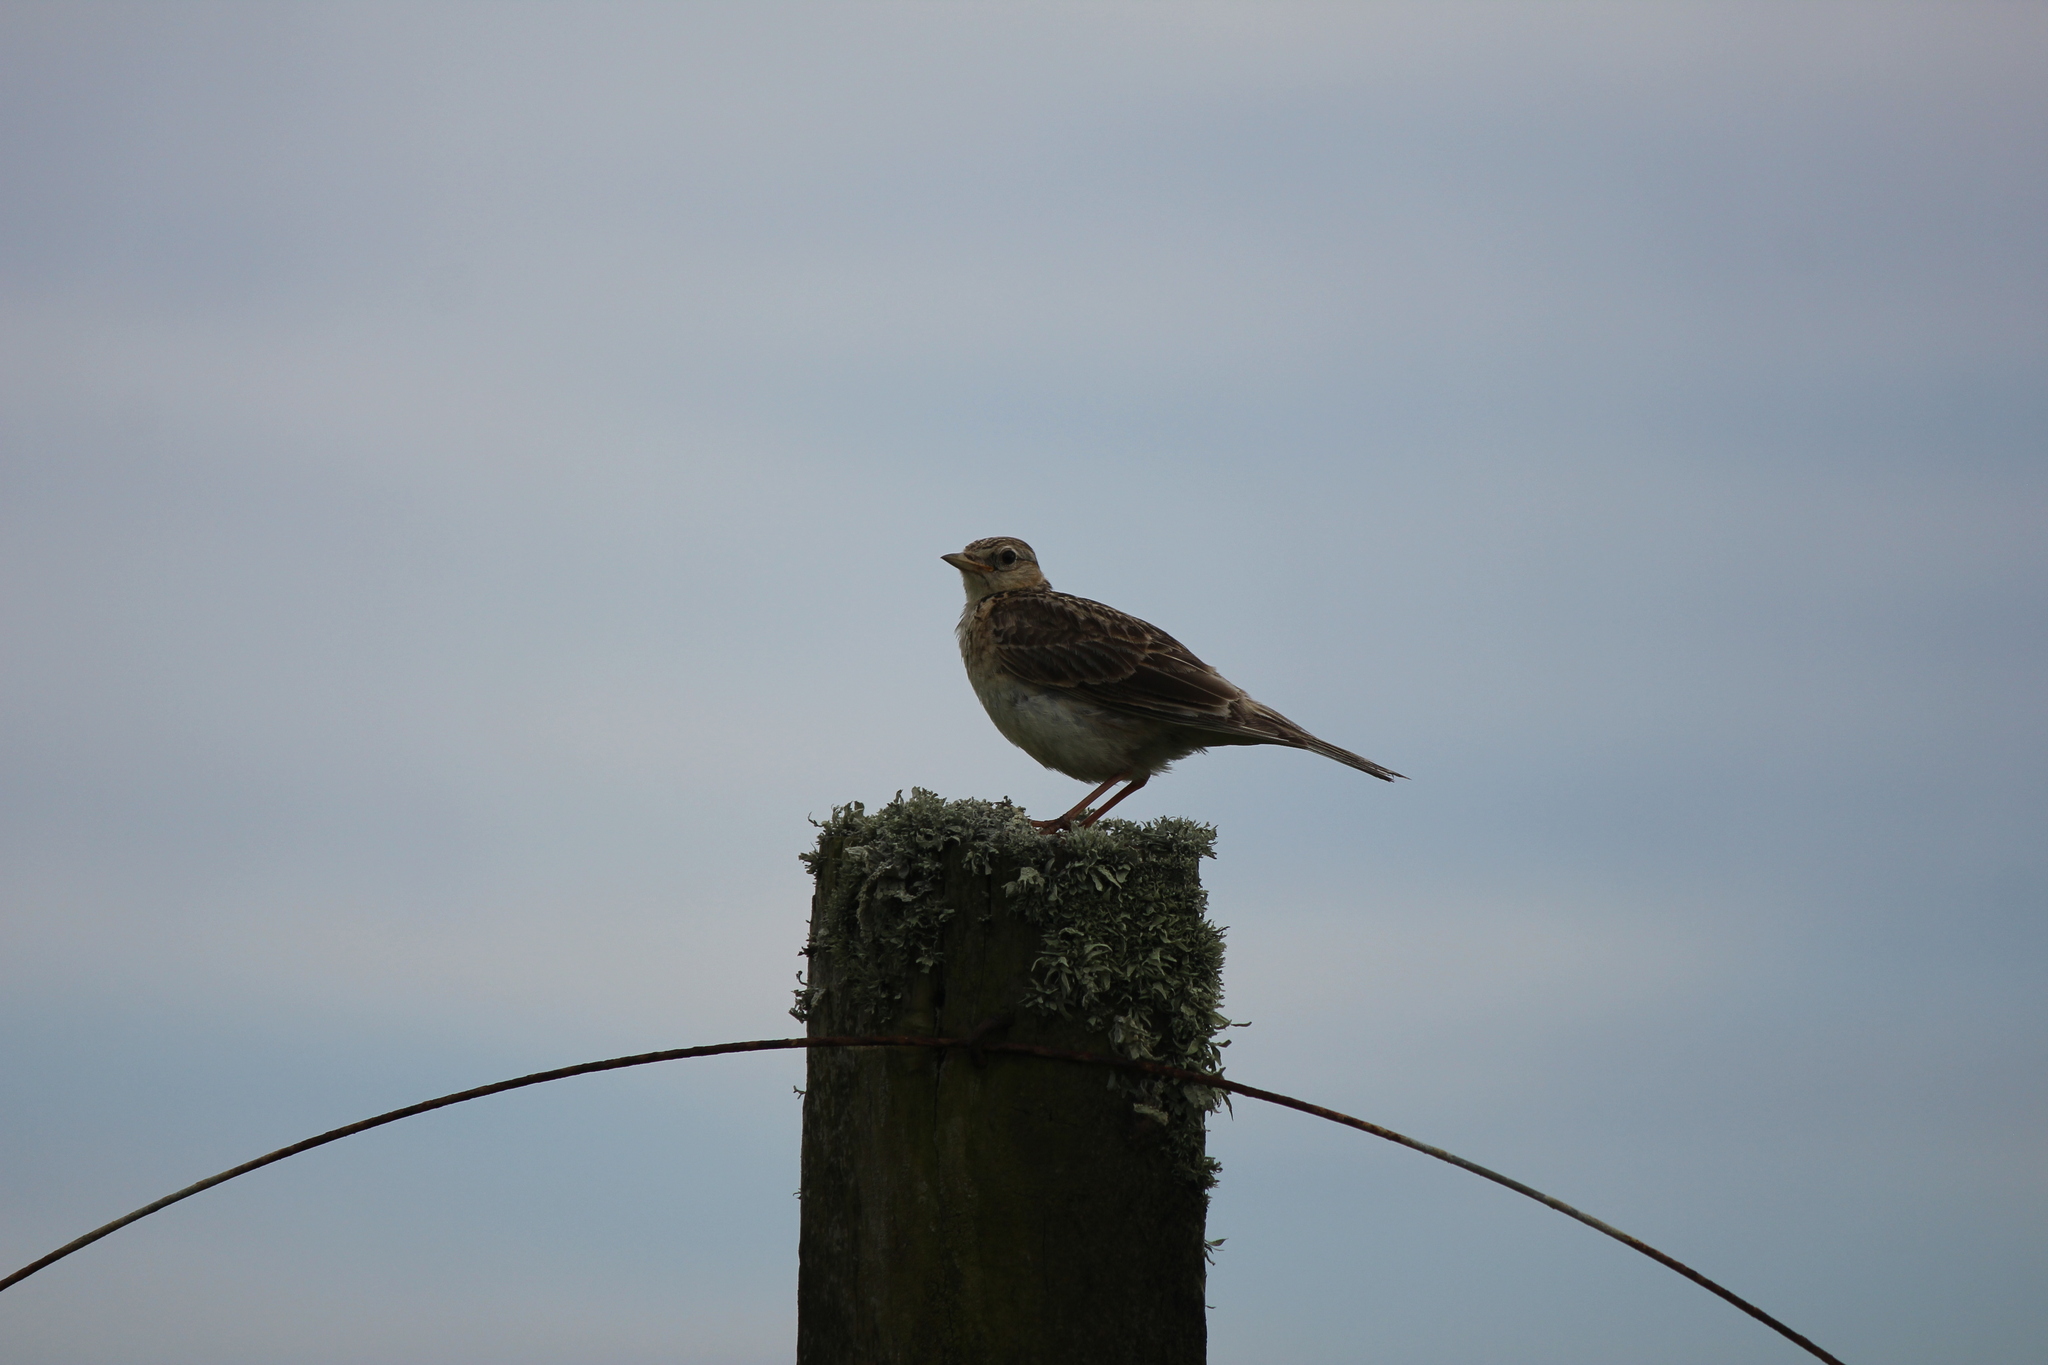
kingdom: Animalia
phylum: Chordata
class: Aves
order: Passeriformes
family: Alaudidae
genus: Alauda
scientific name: Alauda arvensis
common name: Eurasian skylark
